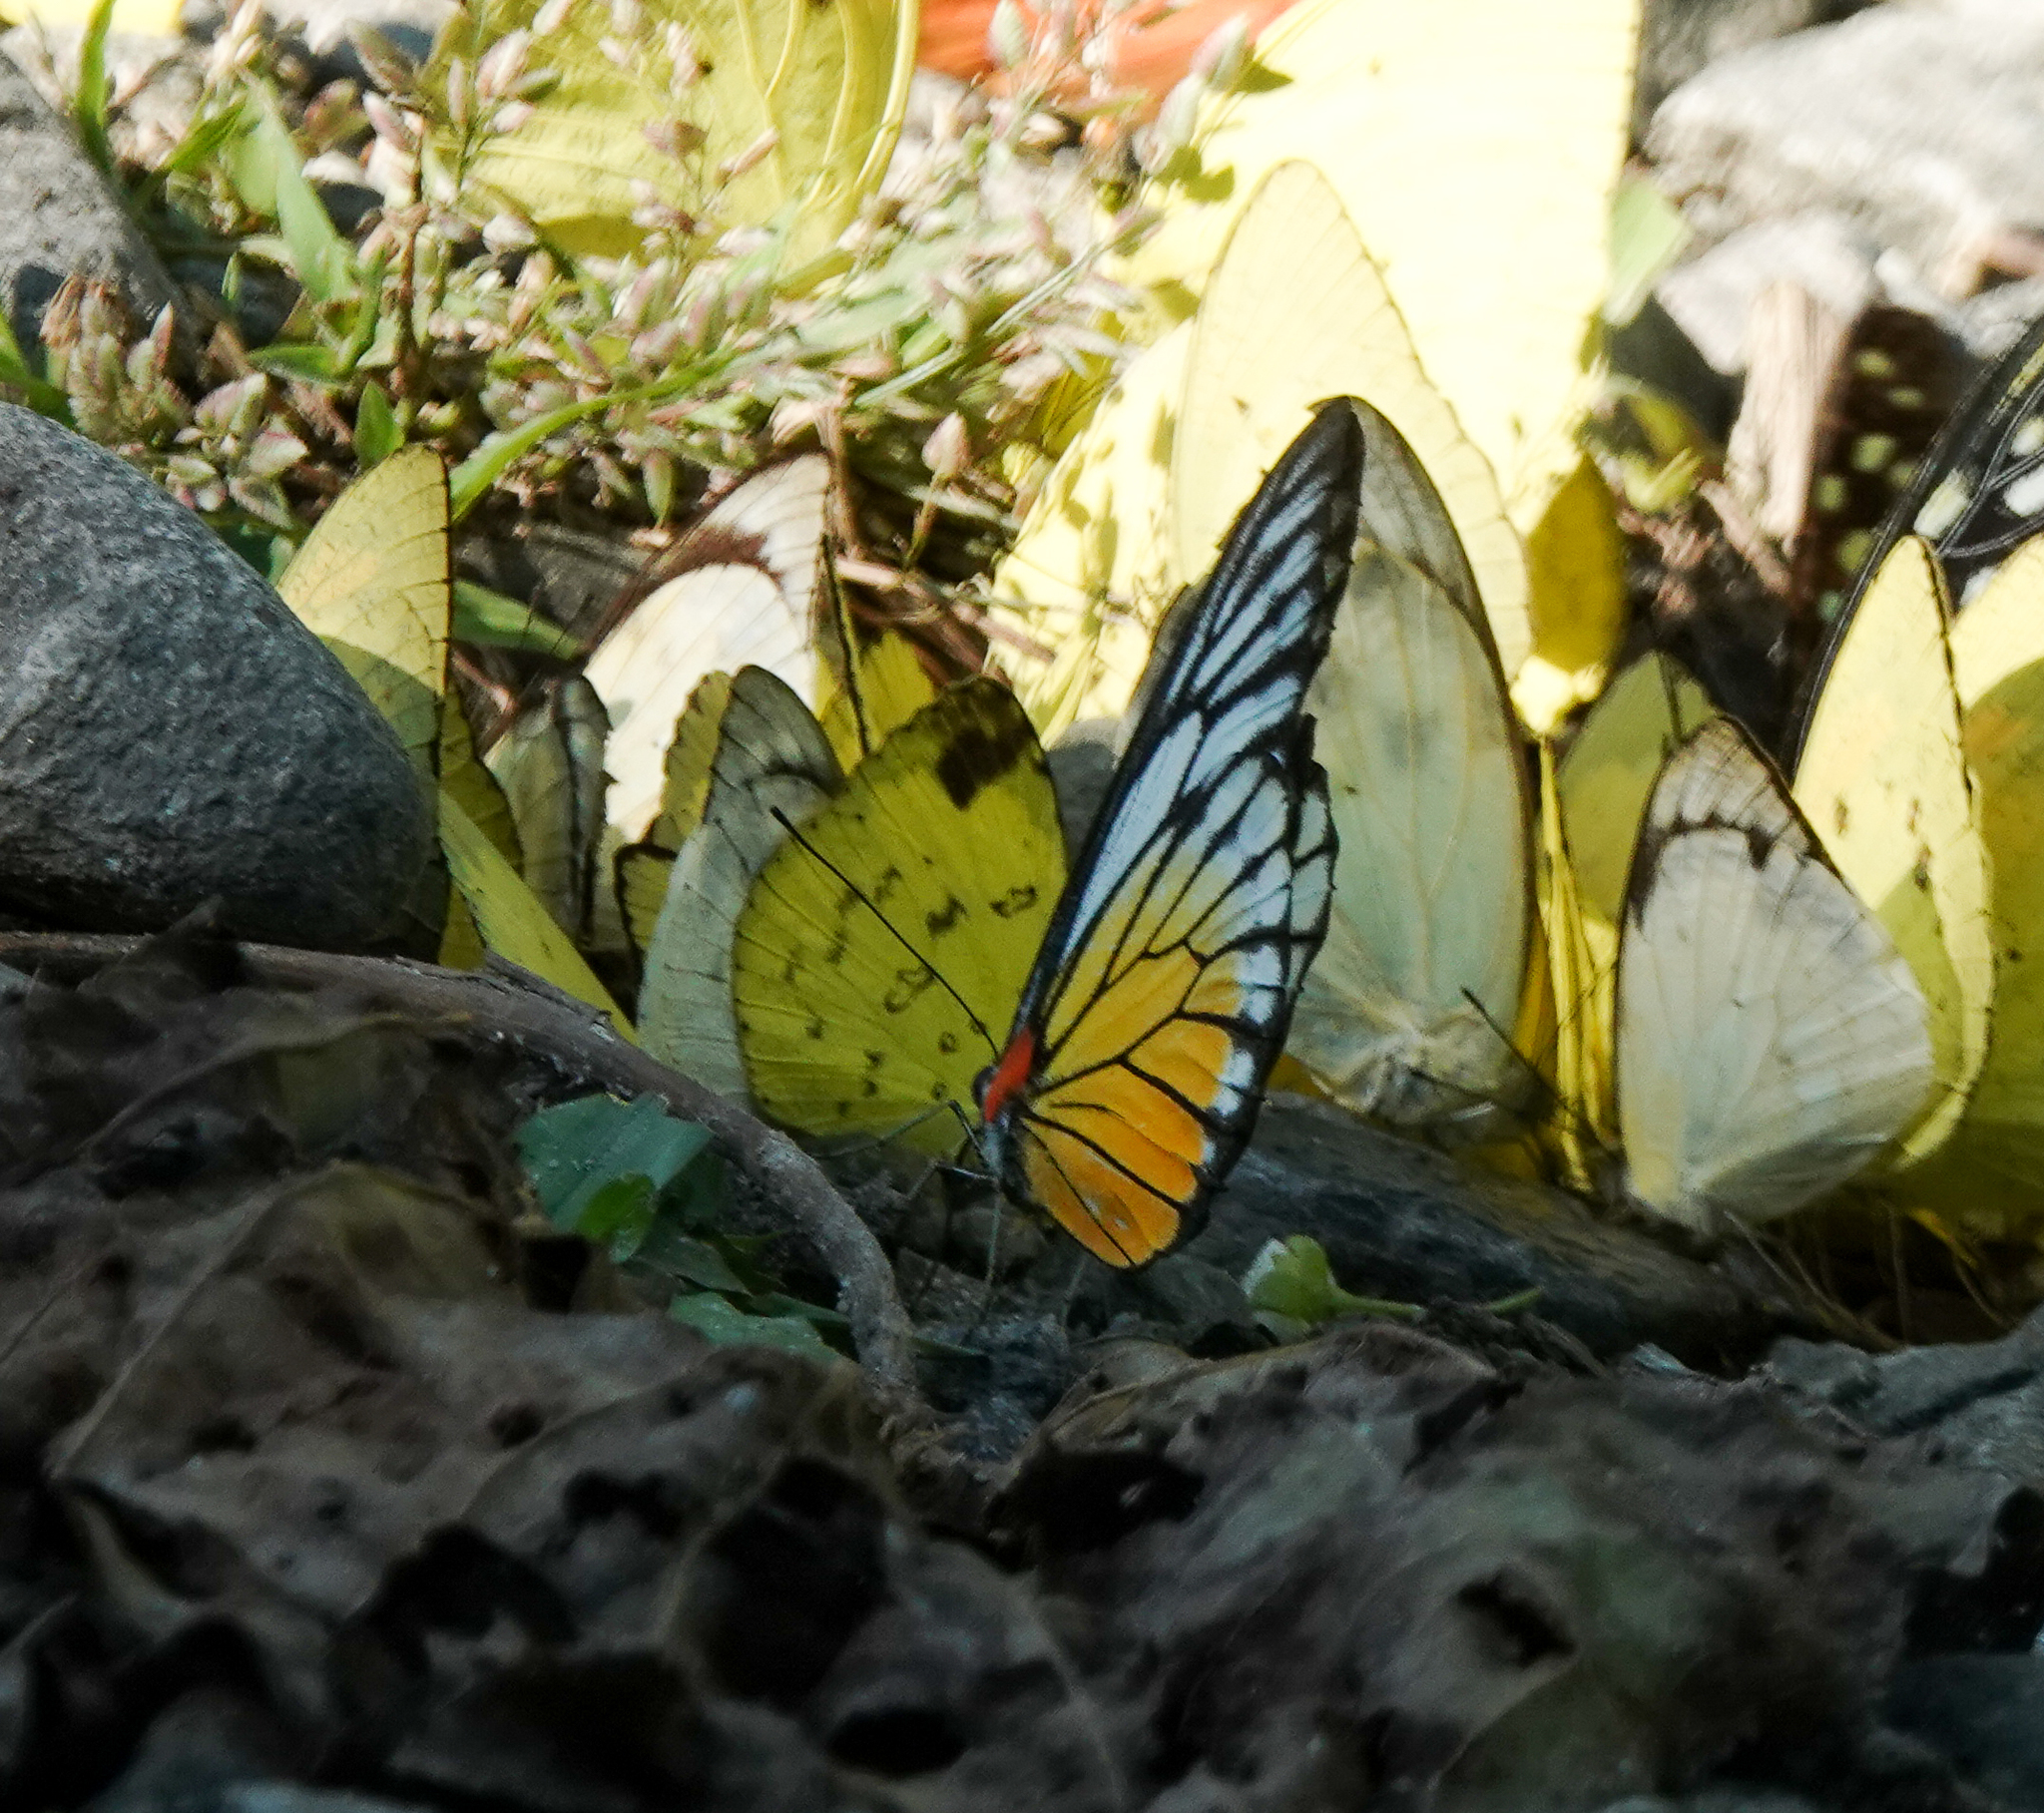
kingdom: Animalia
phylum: Arthropoda
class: Insecta
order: Lepidoptera
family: Pieridae
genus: Prioneris
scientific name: Prioneris philonome
